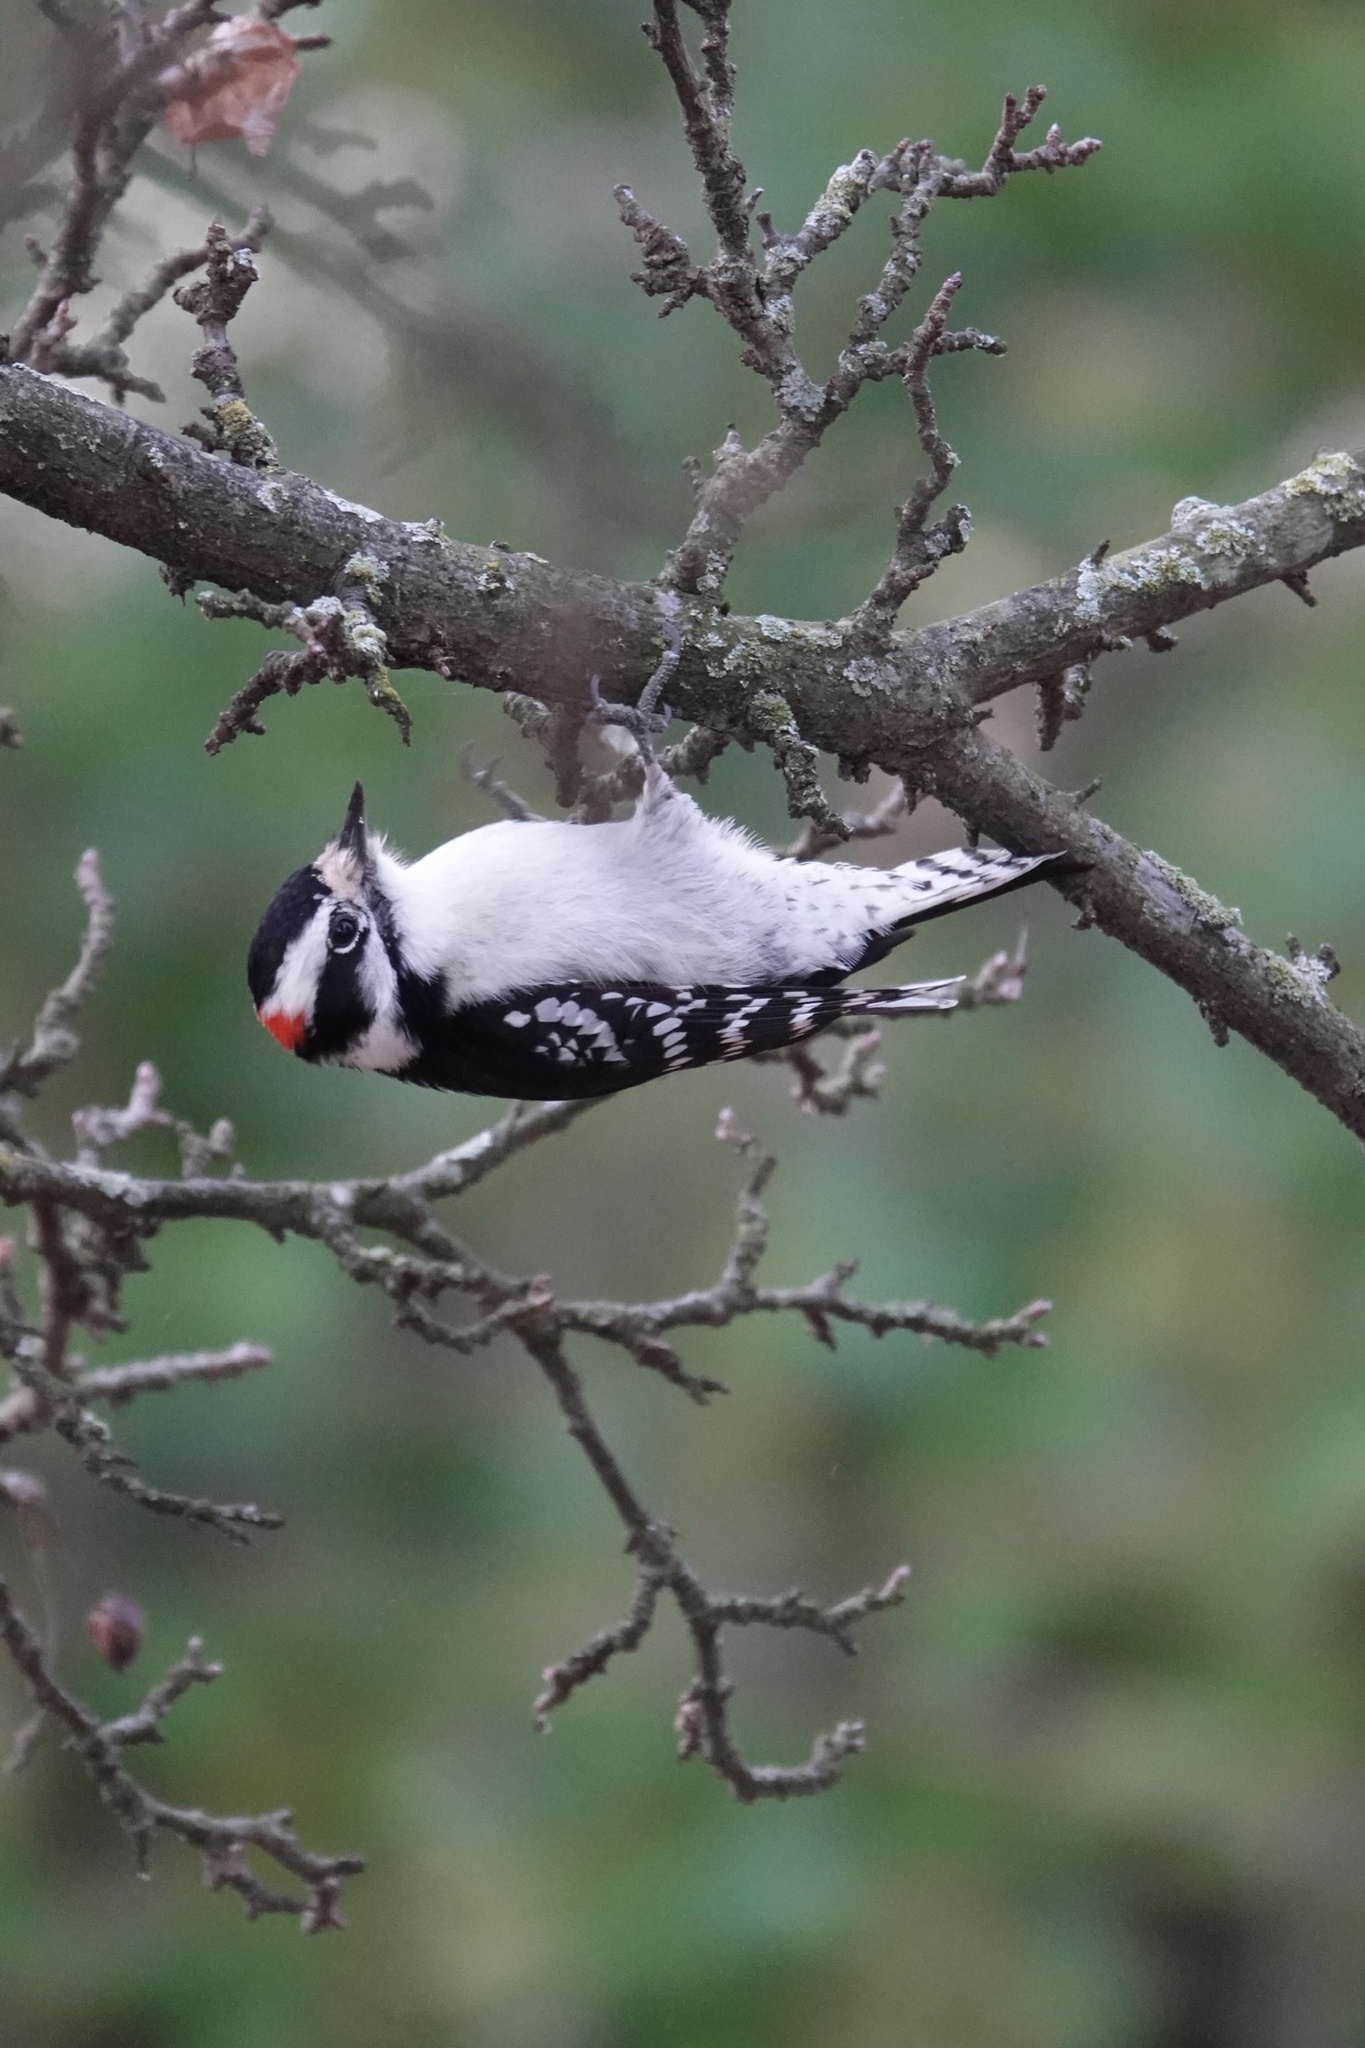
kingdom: Animalia
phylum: Chordata
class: Aves
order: Piciformes
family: Picidae
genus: Dryobates
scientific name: Dryobates pubescens
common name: Downy woodpecker
